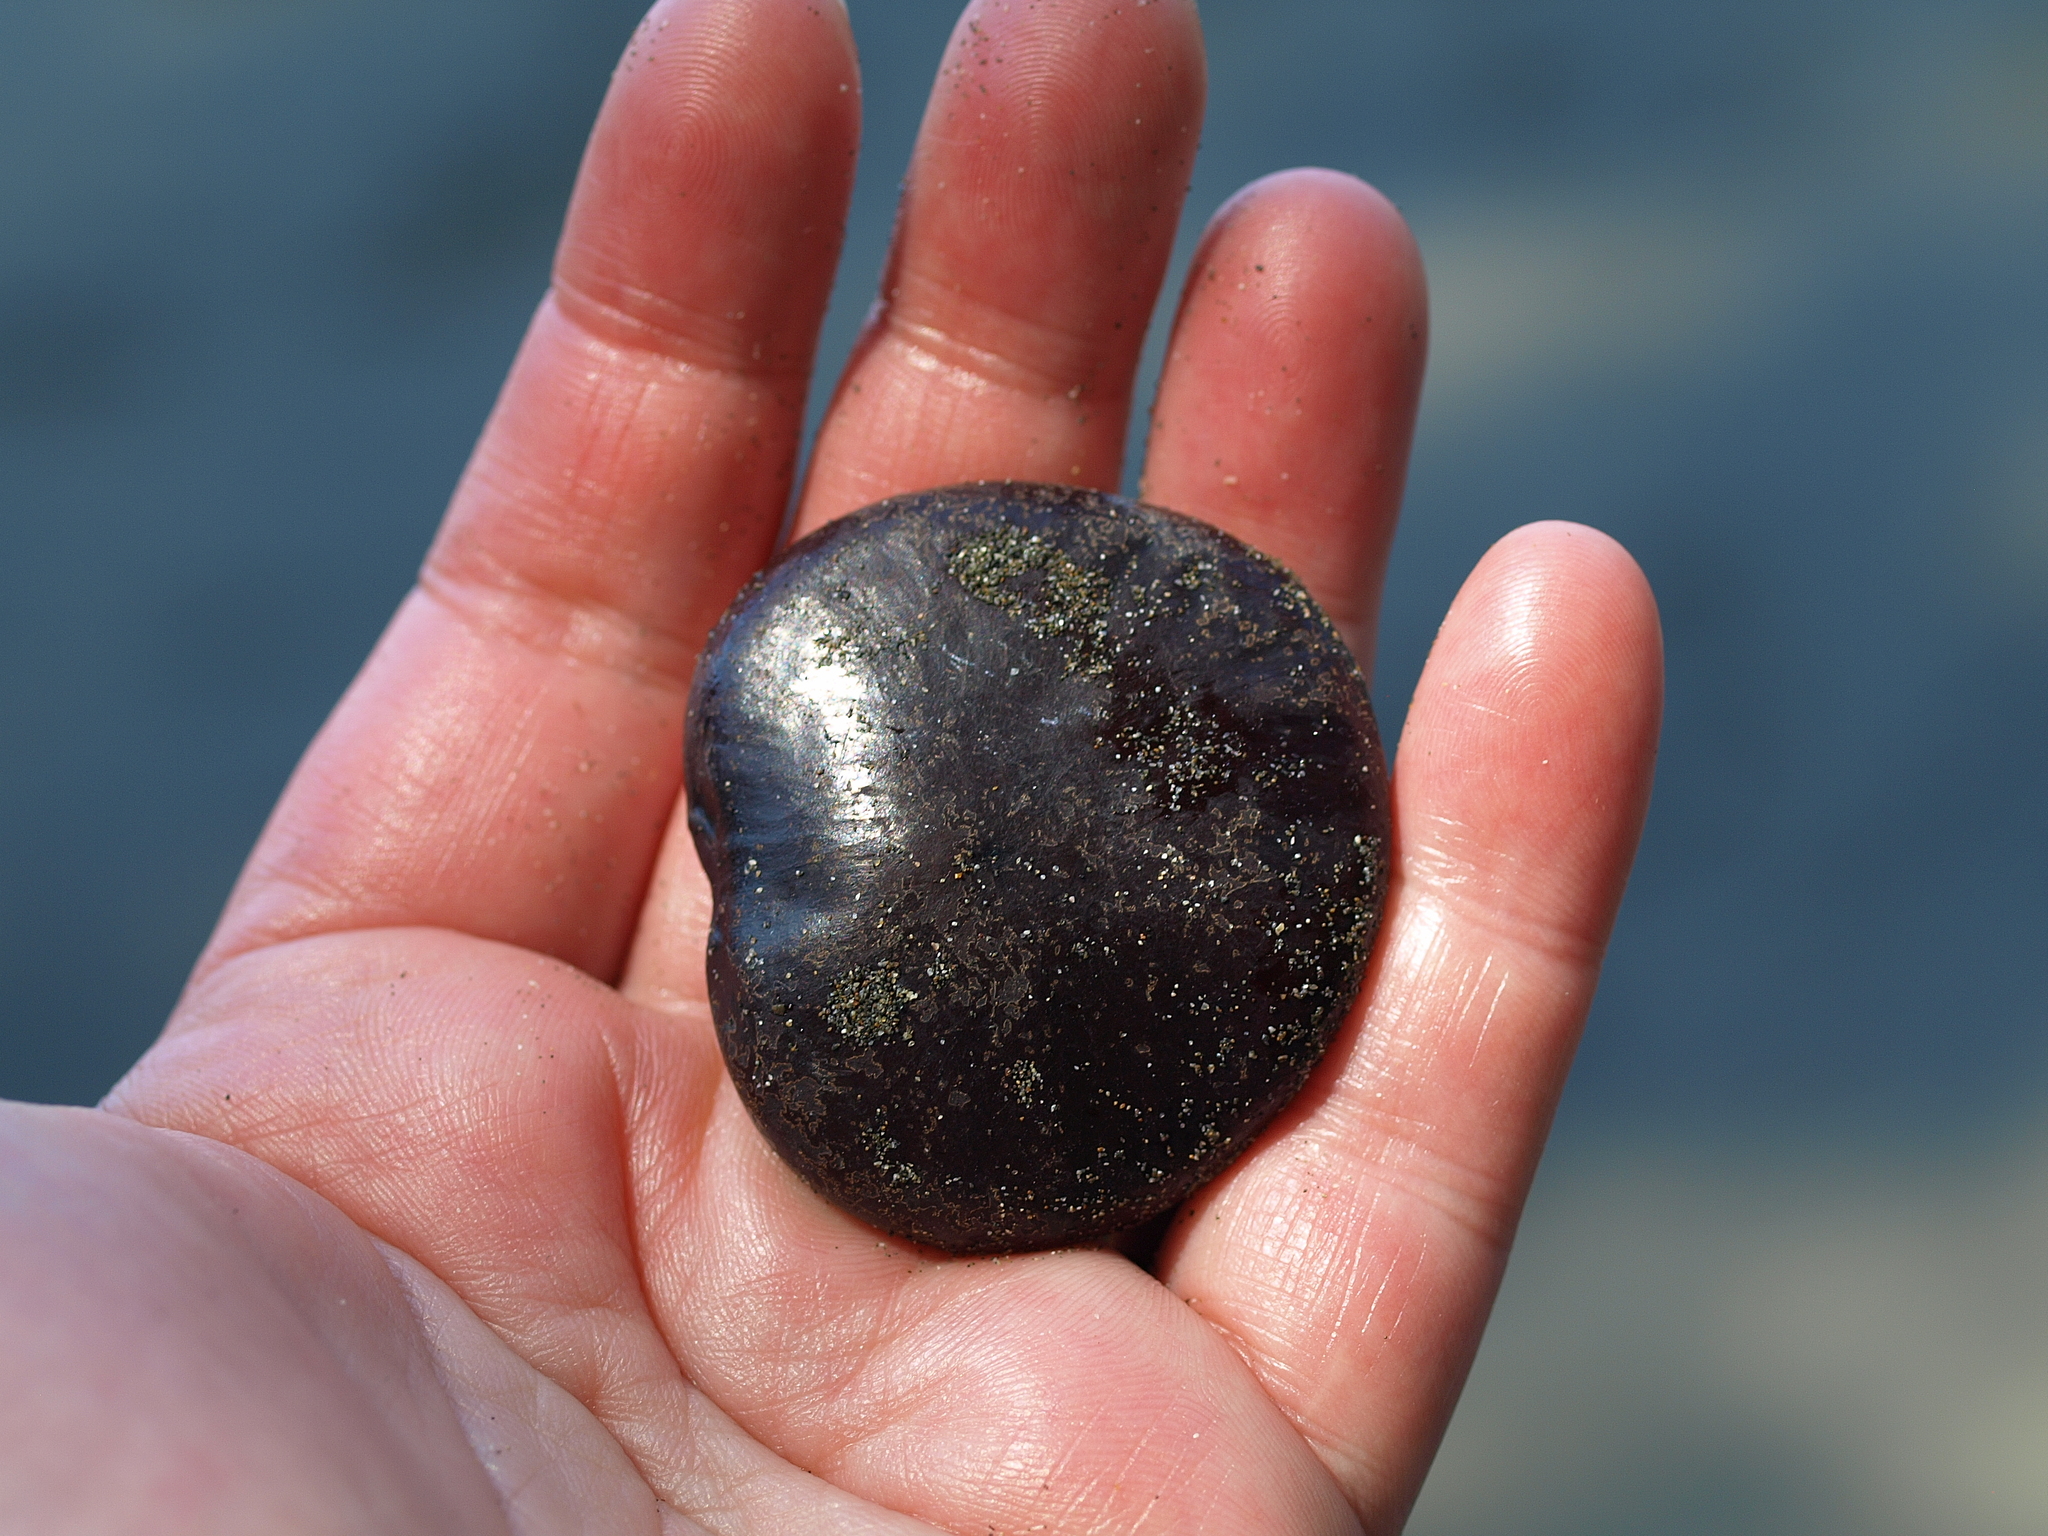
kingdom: Plantae
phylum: Tracheophyta
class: Magnoliopsida
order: Fabales
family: Fabaceae
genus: Entada
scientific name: Entada gigas
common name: Nicker-bean
